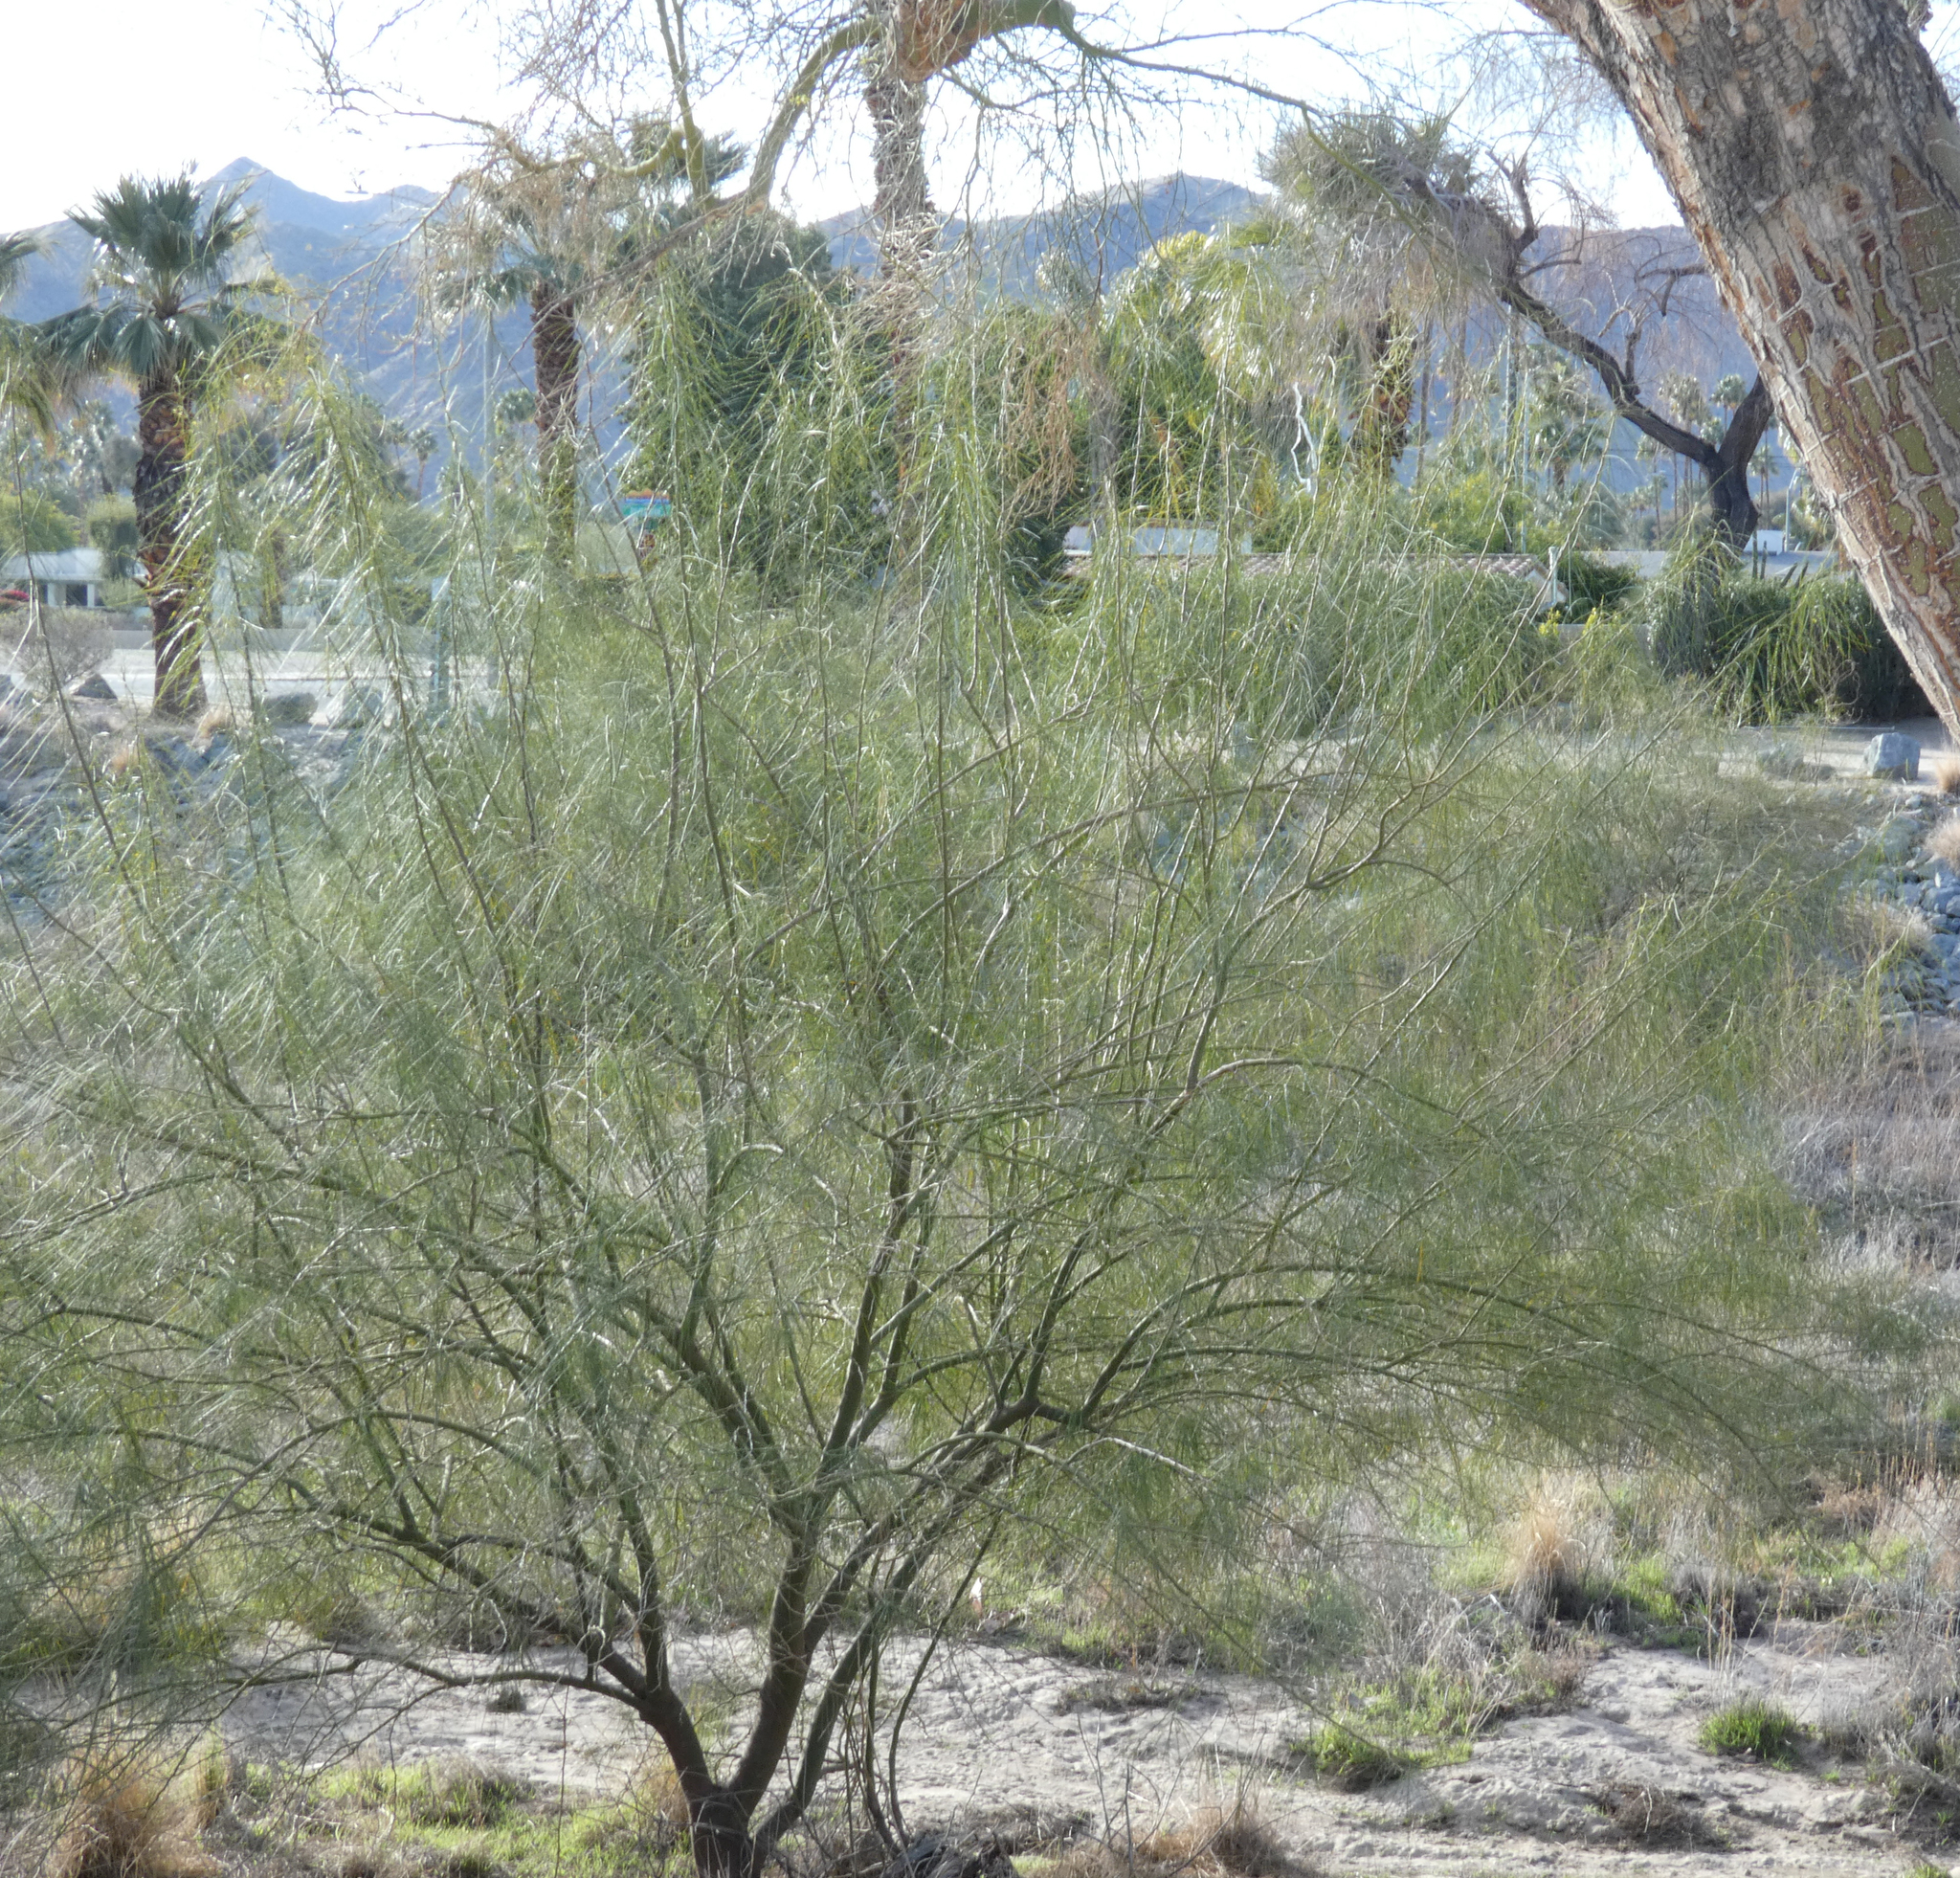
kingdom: Plantae
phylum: Tracheophyta
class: Magnoliopsida
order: Fabales
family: Fabaceae
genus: Parkinsonia
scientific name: Parkinsonia aculeata
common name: Jerusalem thorn
